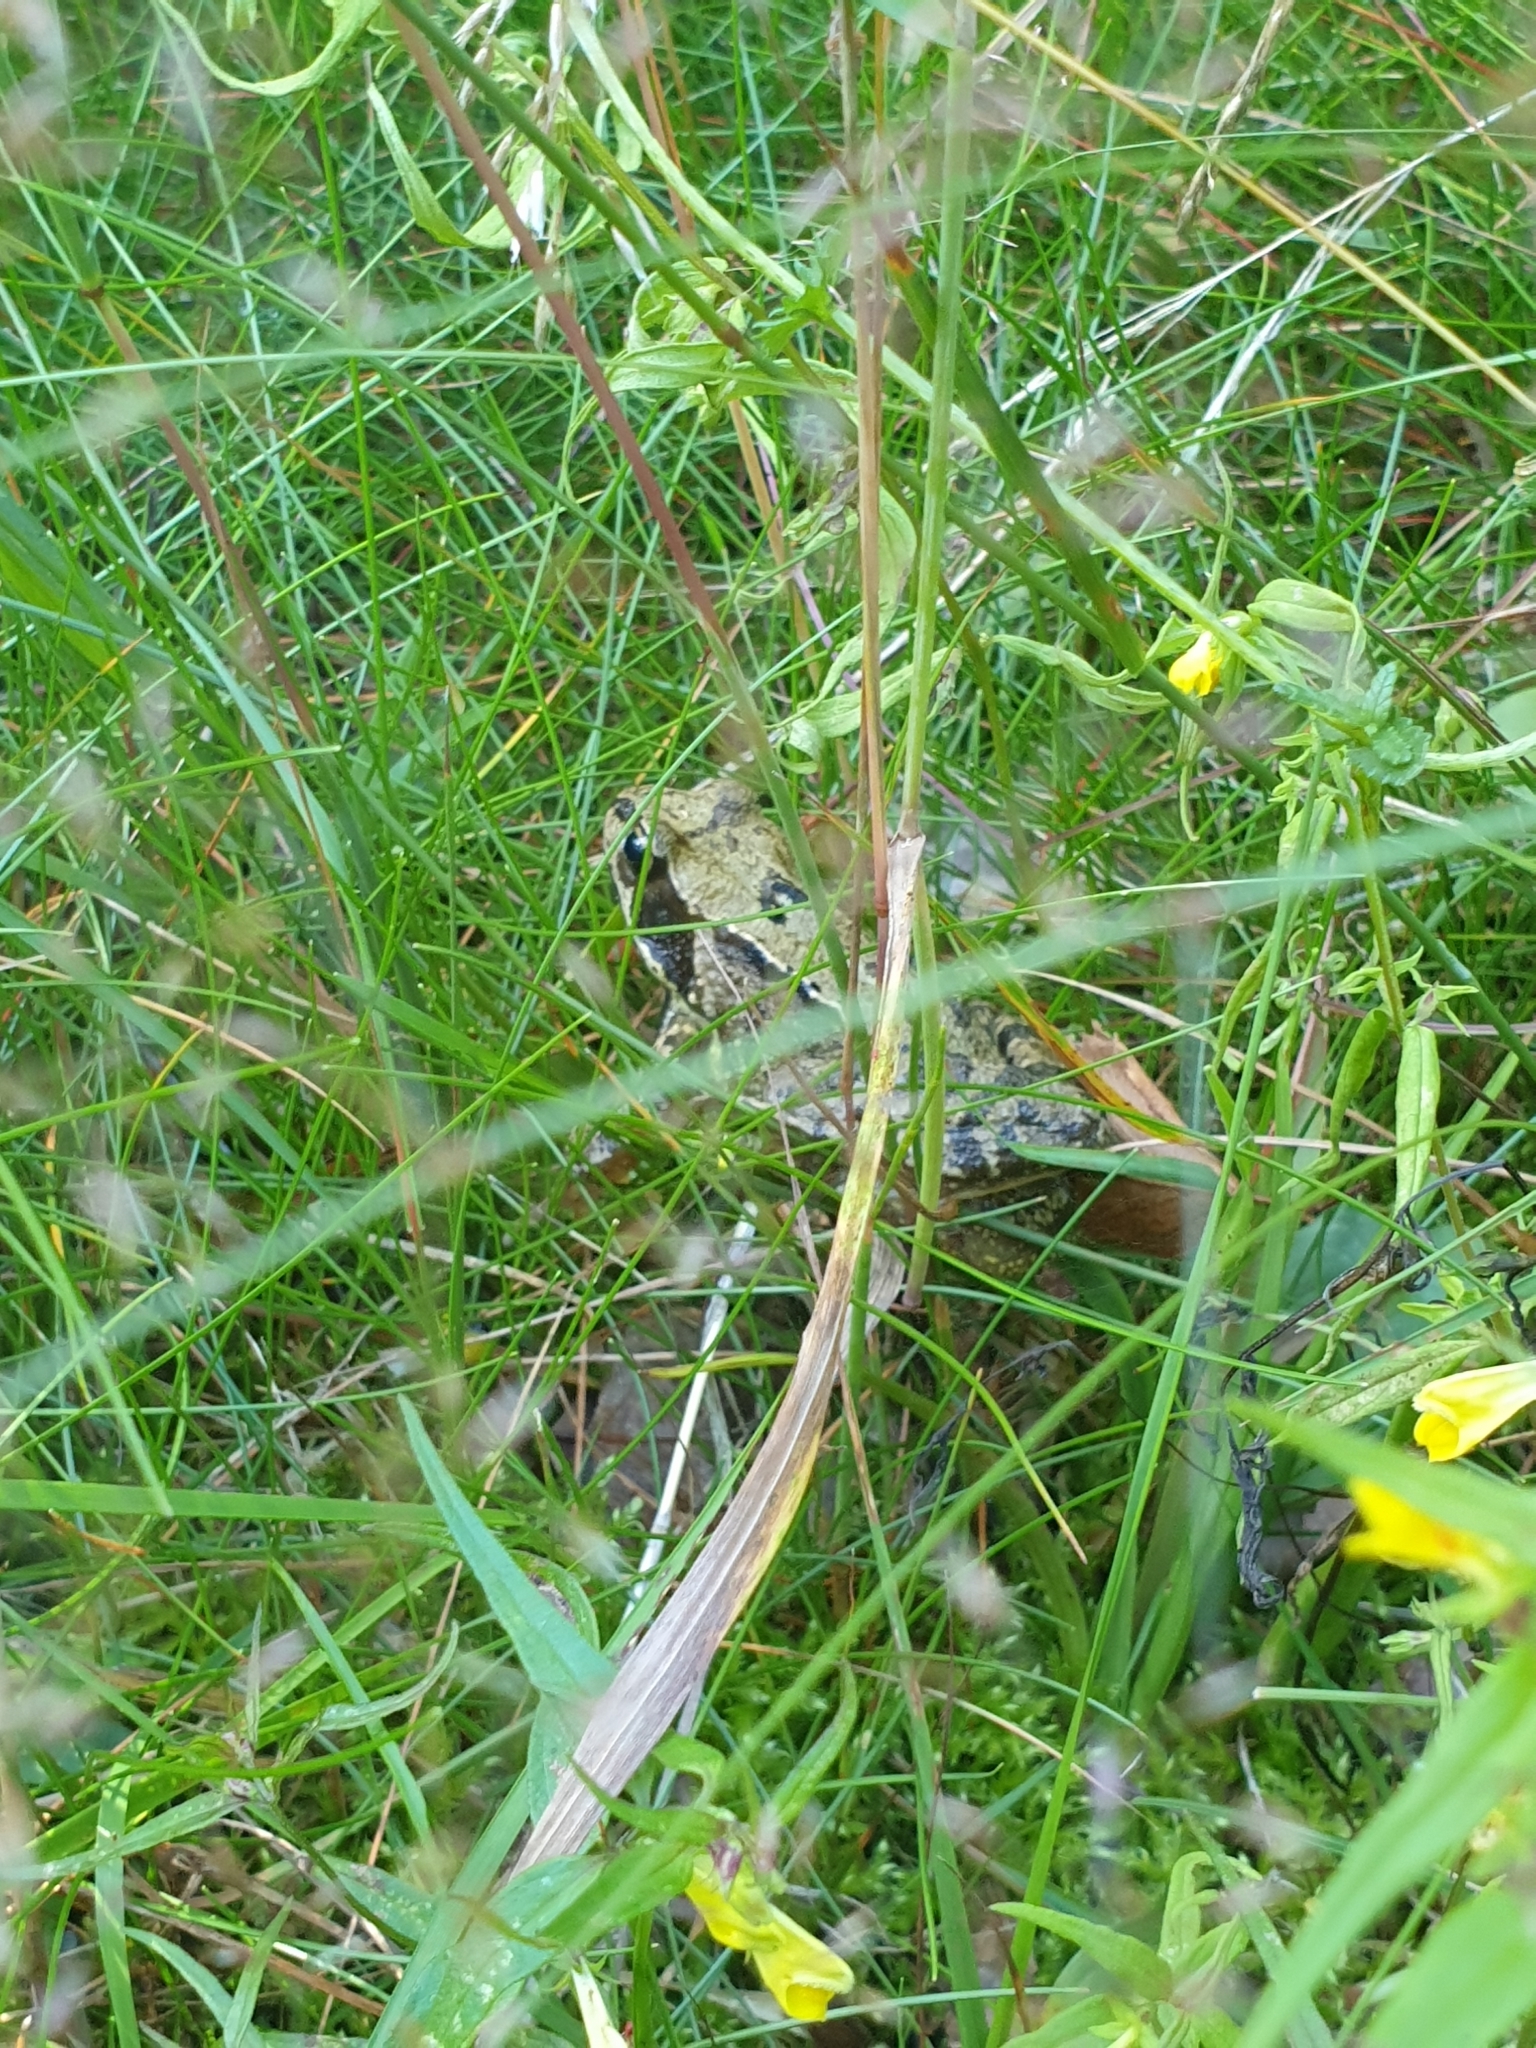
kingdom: Animalia
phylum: Chordata
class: Amphibia
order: Anura
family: Ranidae
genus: Rana
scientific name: Rana temporaria
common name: Common frog
